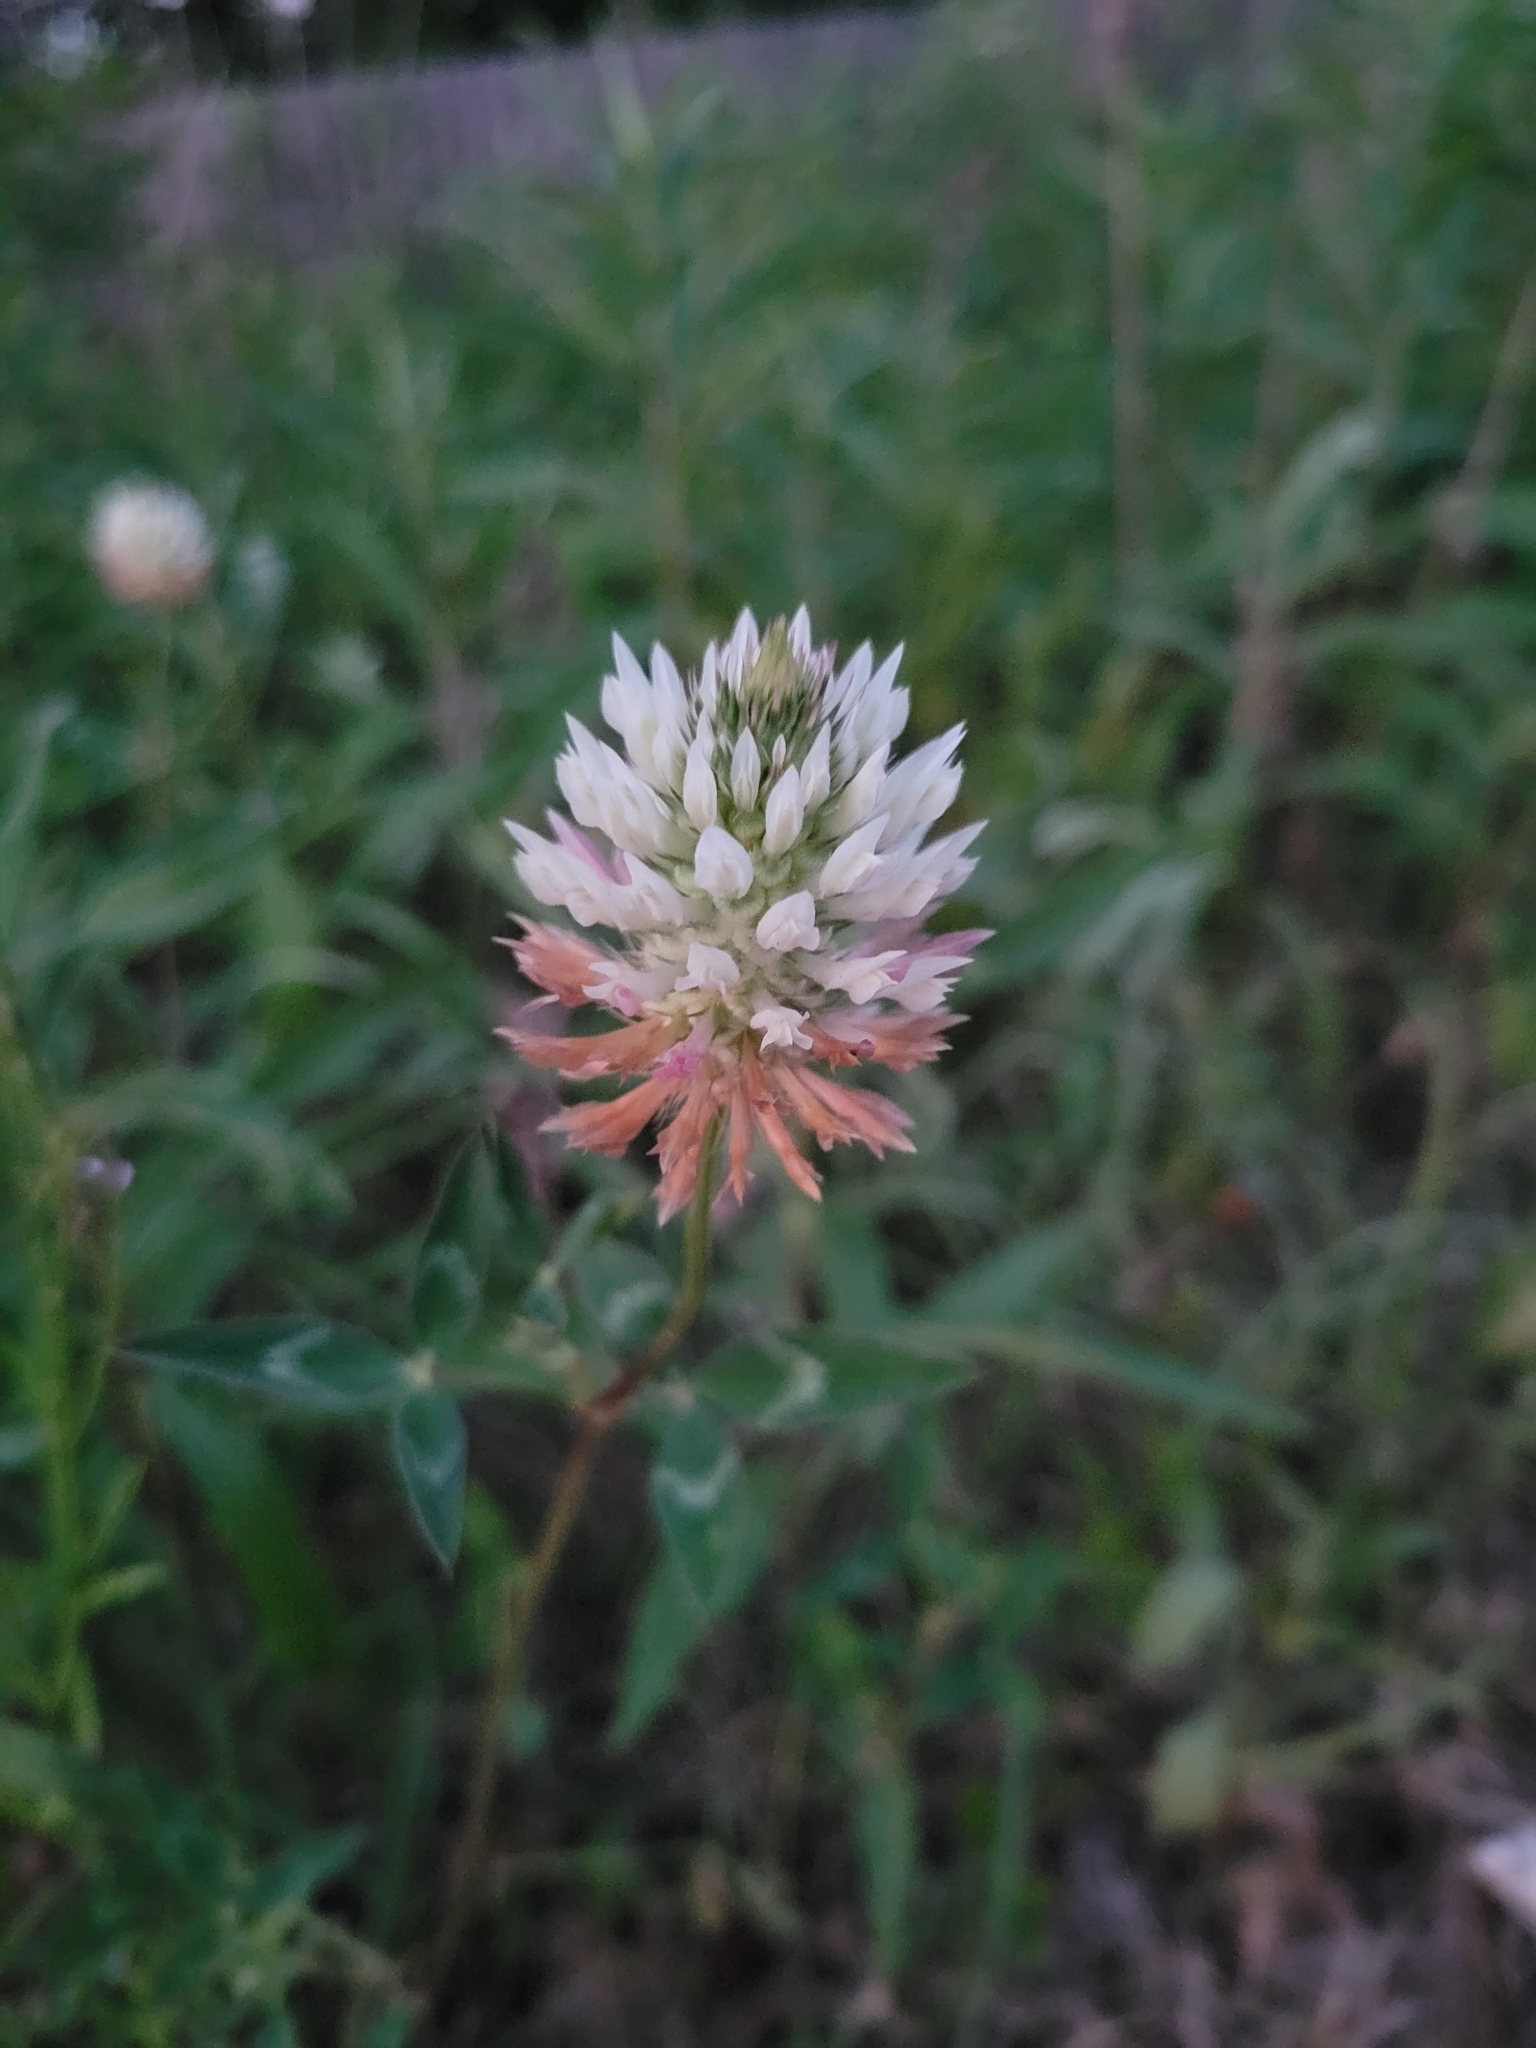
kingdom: Plantae
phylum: Tracheophyta
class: Magnoliopsida
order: Fabales
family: Fabaceae
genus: Trifolium
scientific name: Trifolium vesiculosum
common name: Arrowleaf clover
